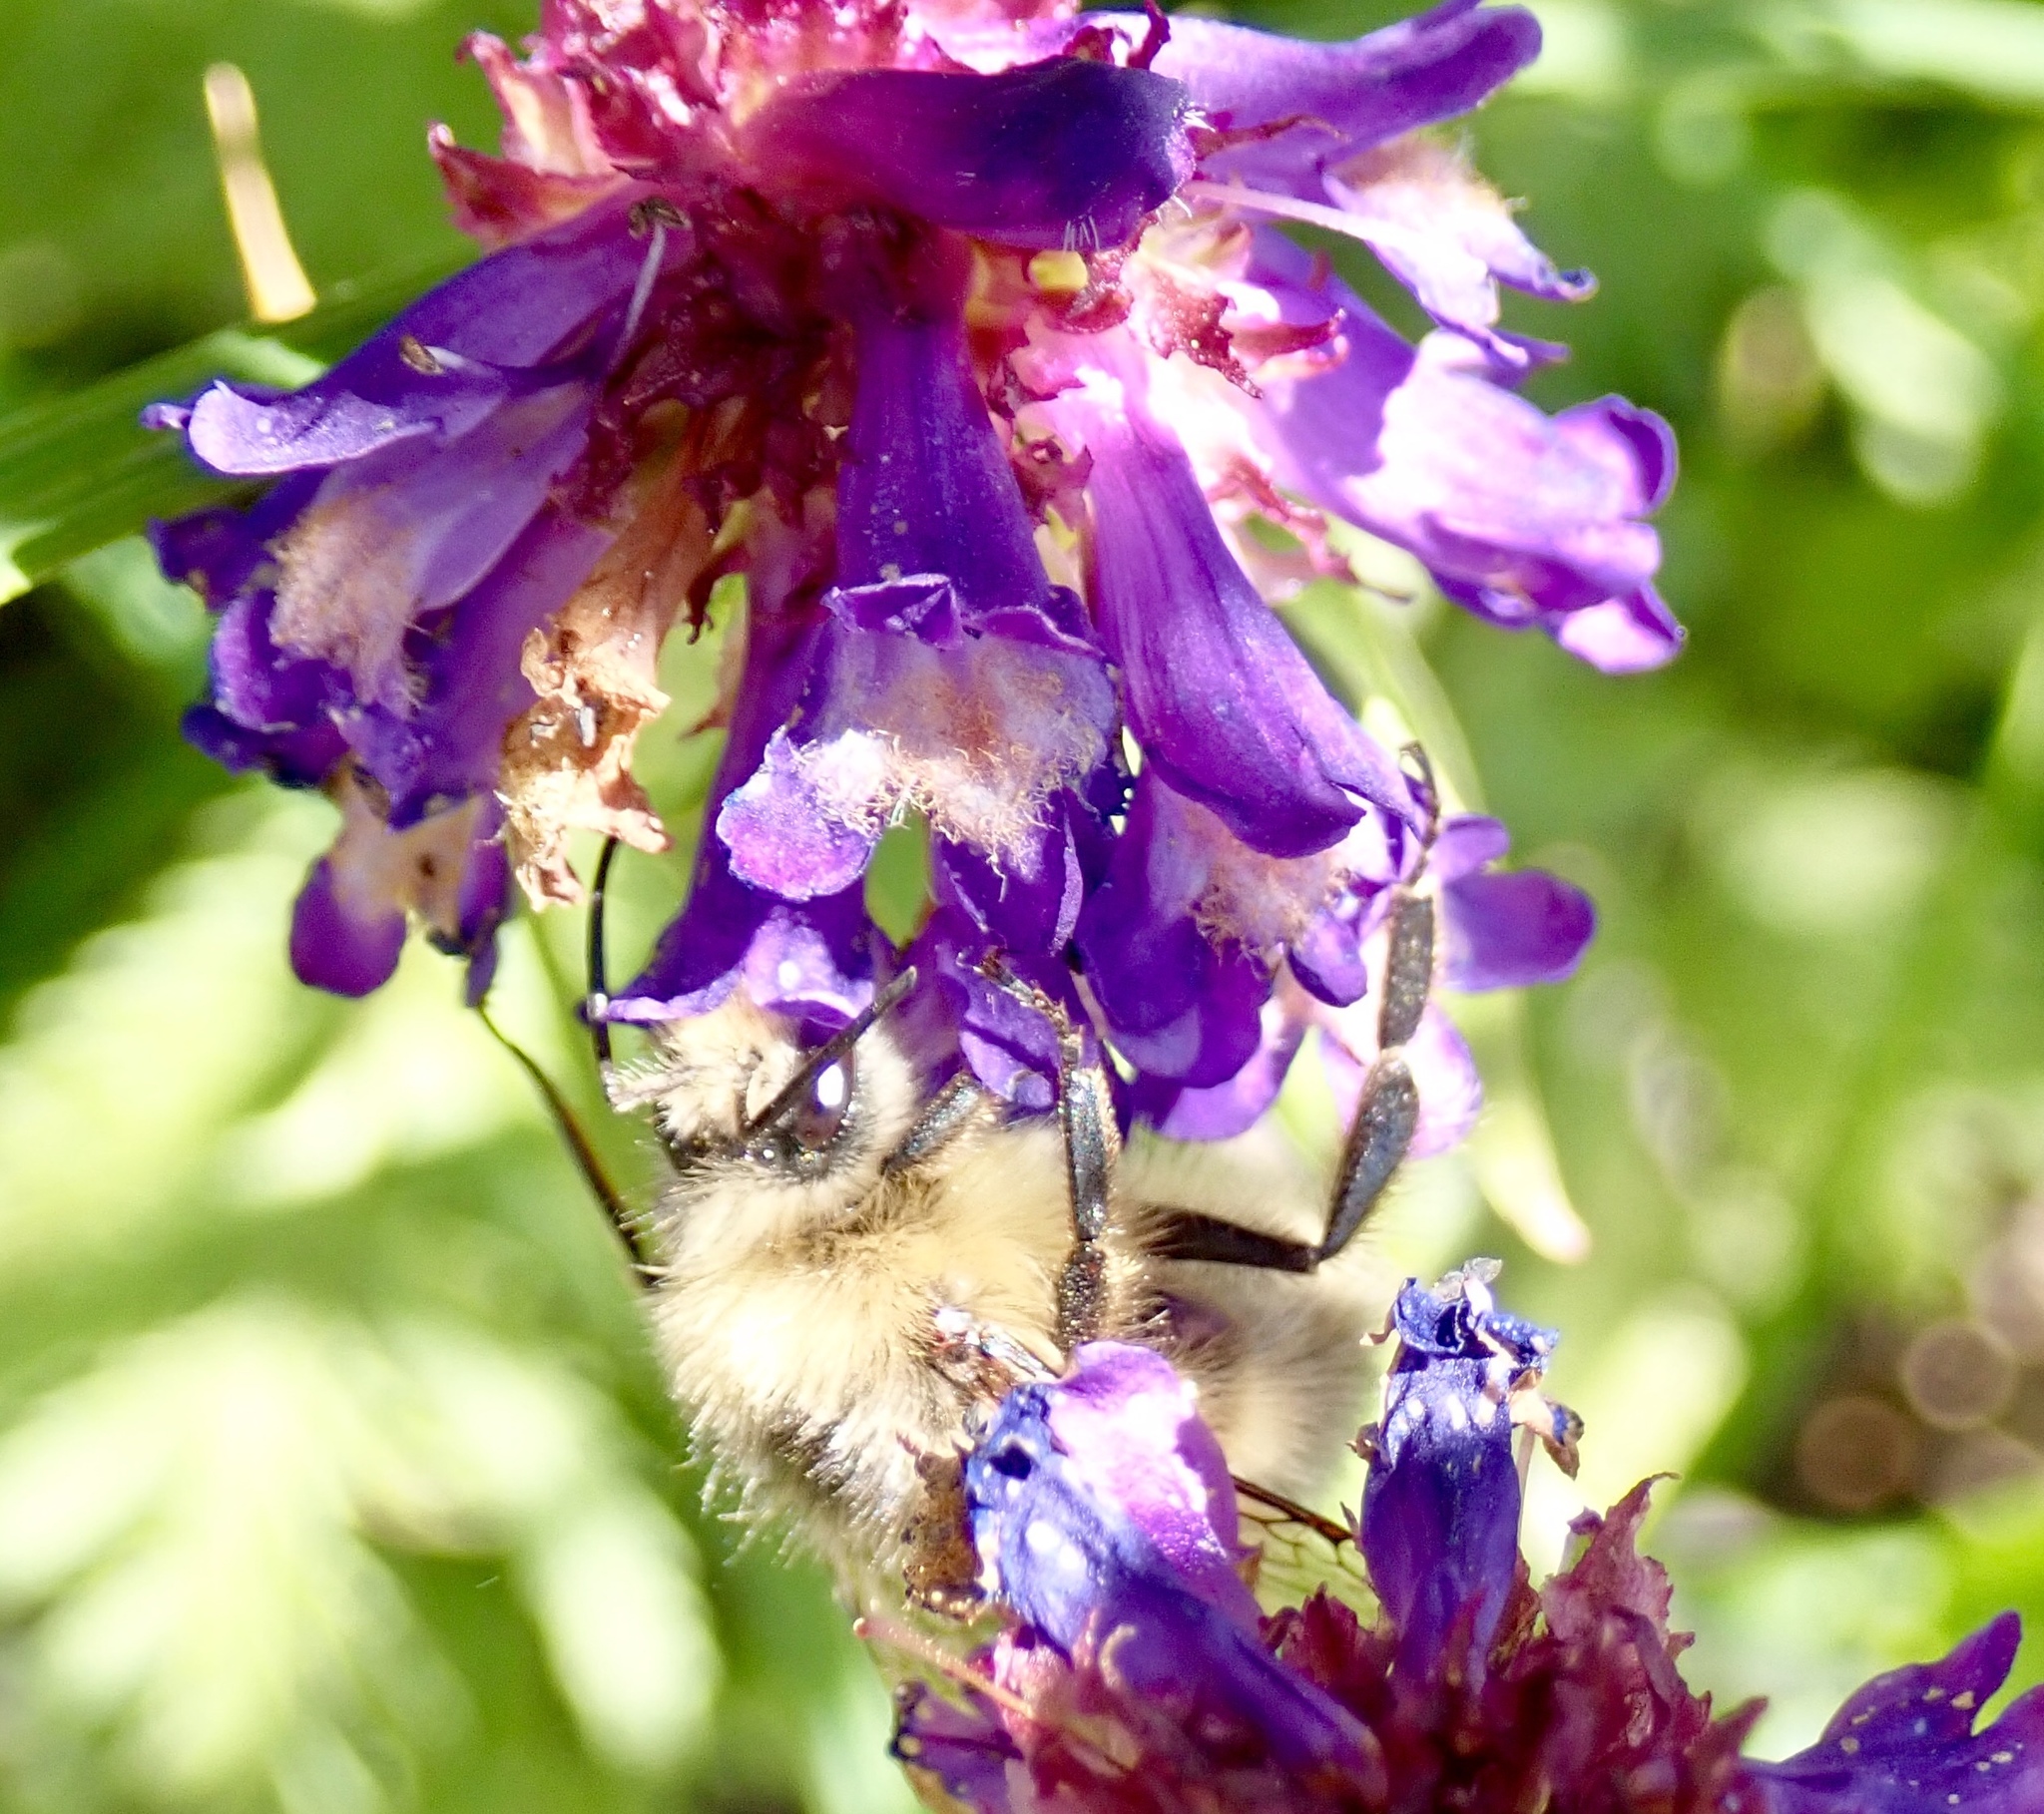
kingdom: Plantae
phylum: Tracheophyta
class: Magnoliopsida
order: Lamiales
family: Plantaginaceae
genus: Penstemon
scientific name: Penstemon procerus
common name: Small-flower penstemon
